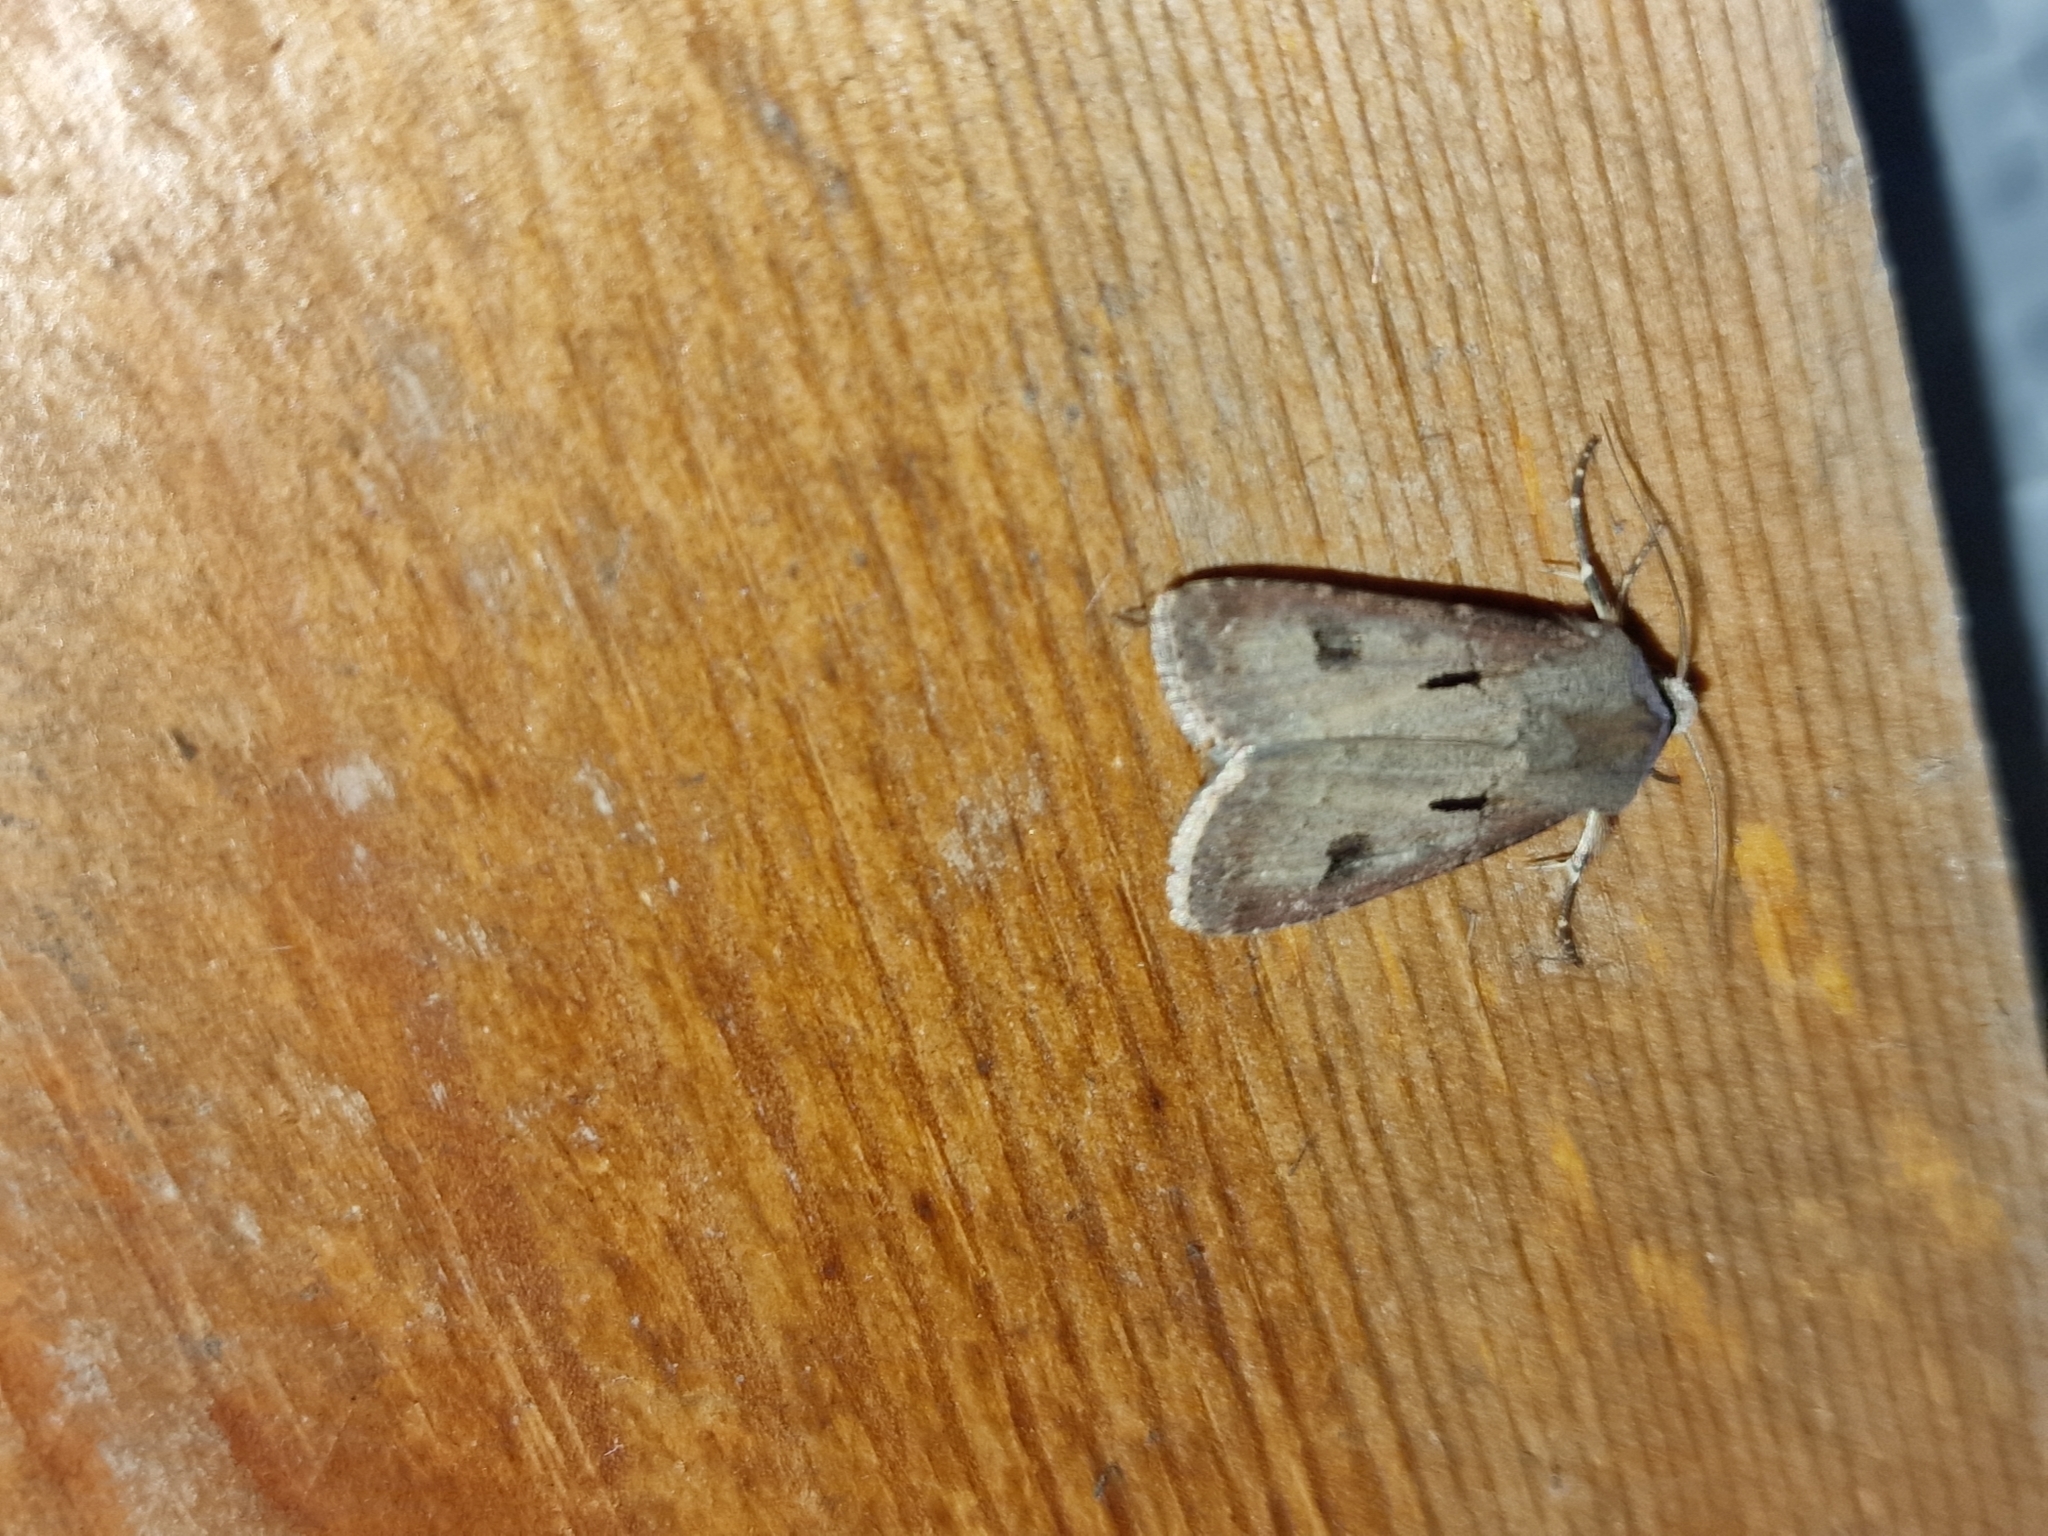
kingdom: Animalia
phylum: Arthropoda
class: Insecta
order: Lepidoptera
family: Noctuidae
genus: Agrotis
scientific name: Agrotis exclamationis
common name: Heart and dart
